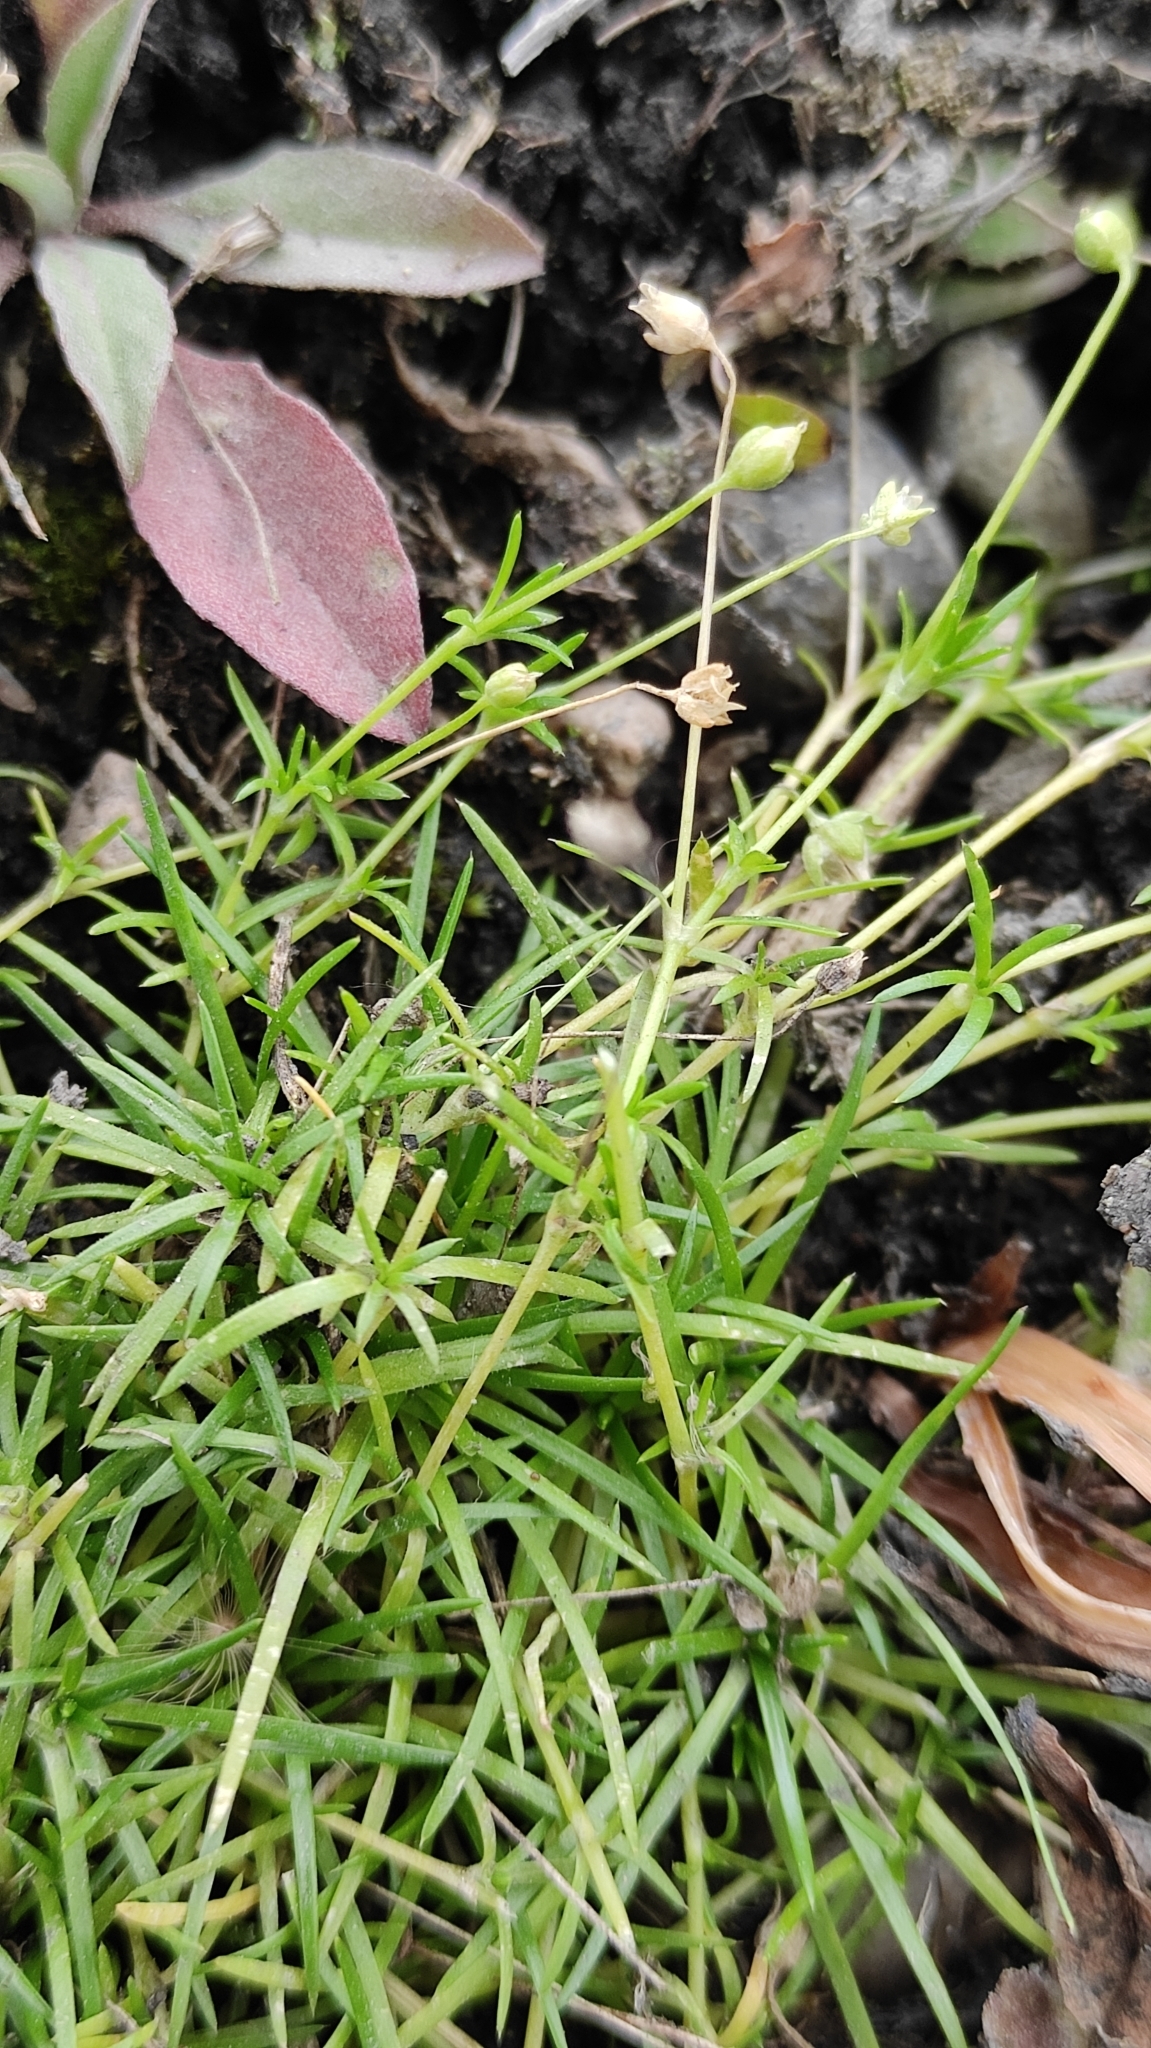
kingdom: Plantae
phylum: Tracheophyta
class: Magnoliopsida
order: Caryophyllales
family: Caryophyllaceae
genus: Sagina
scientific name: Sagina procumbens
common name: Procumbent pearlwort
